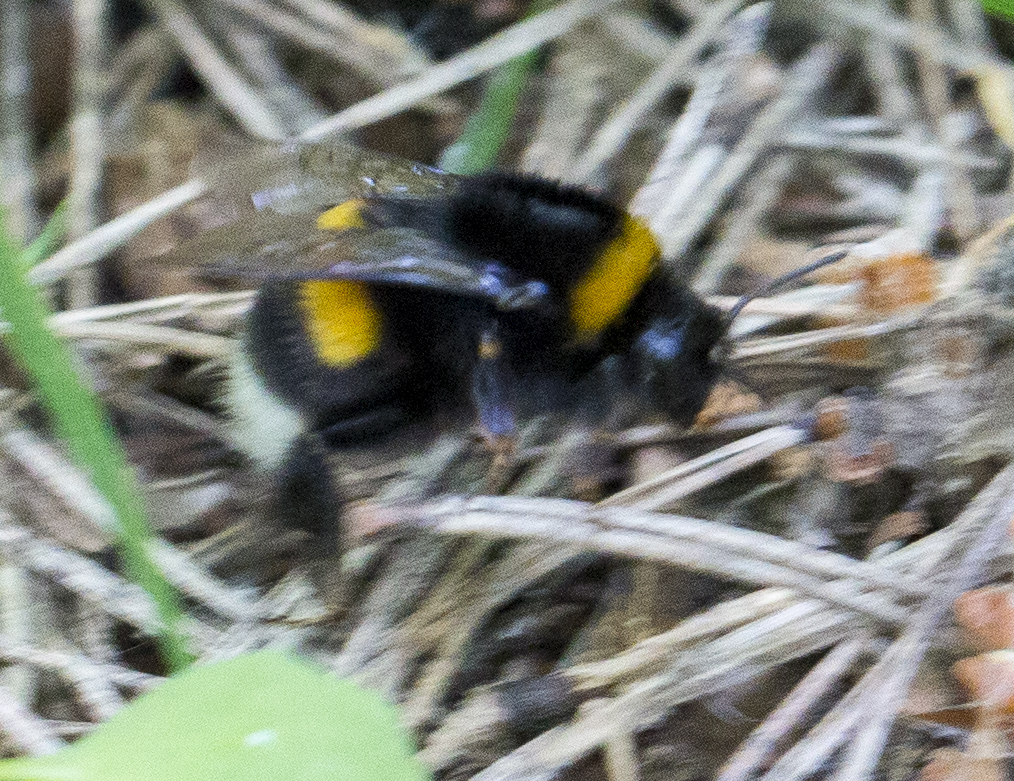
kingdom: Animalia
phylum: Arthropoda
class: Insecta
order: Hymenoptera
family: Apidae
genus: Bombus
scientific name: Bombus
